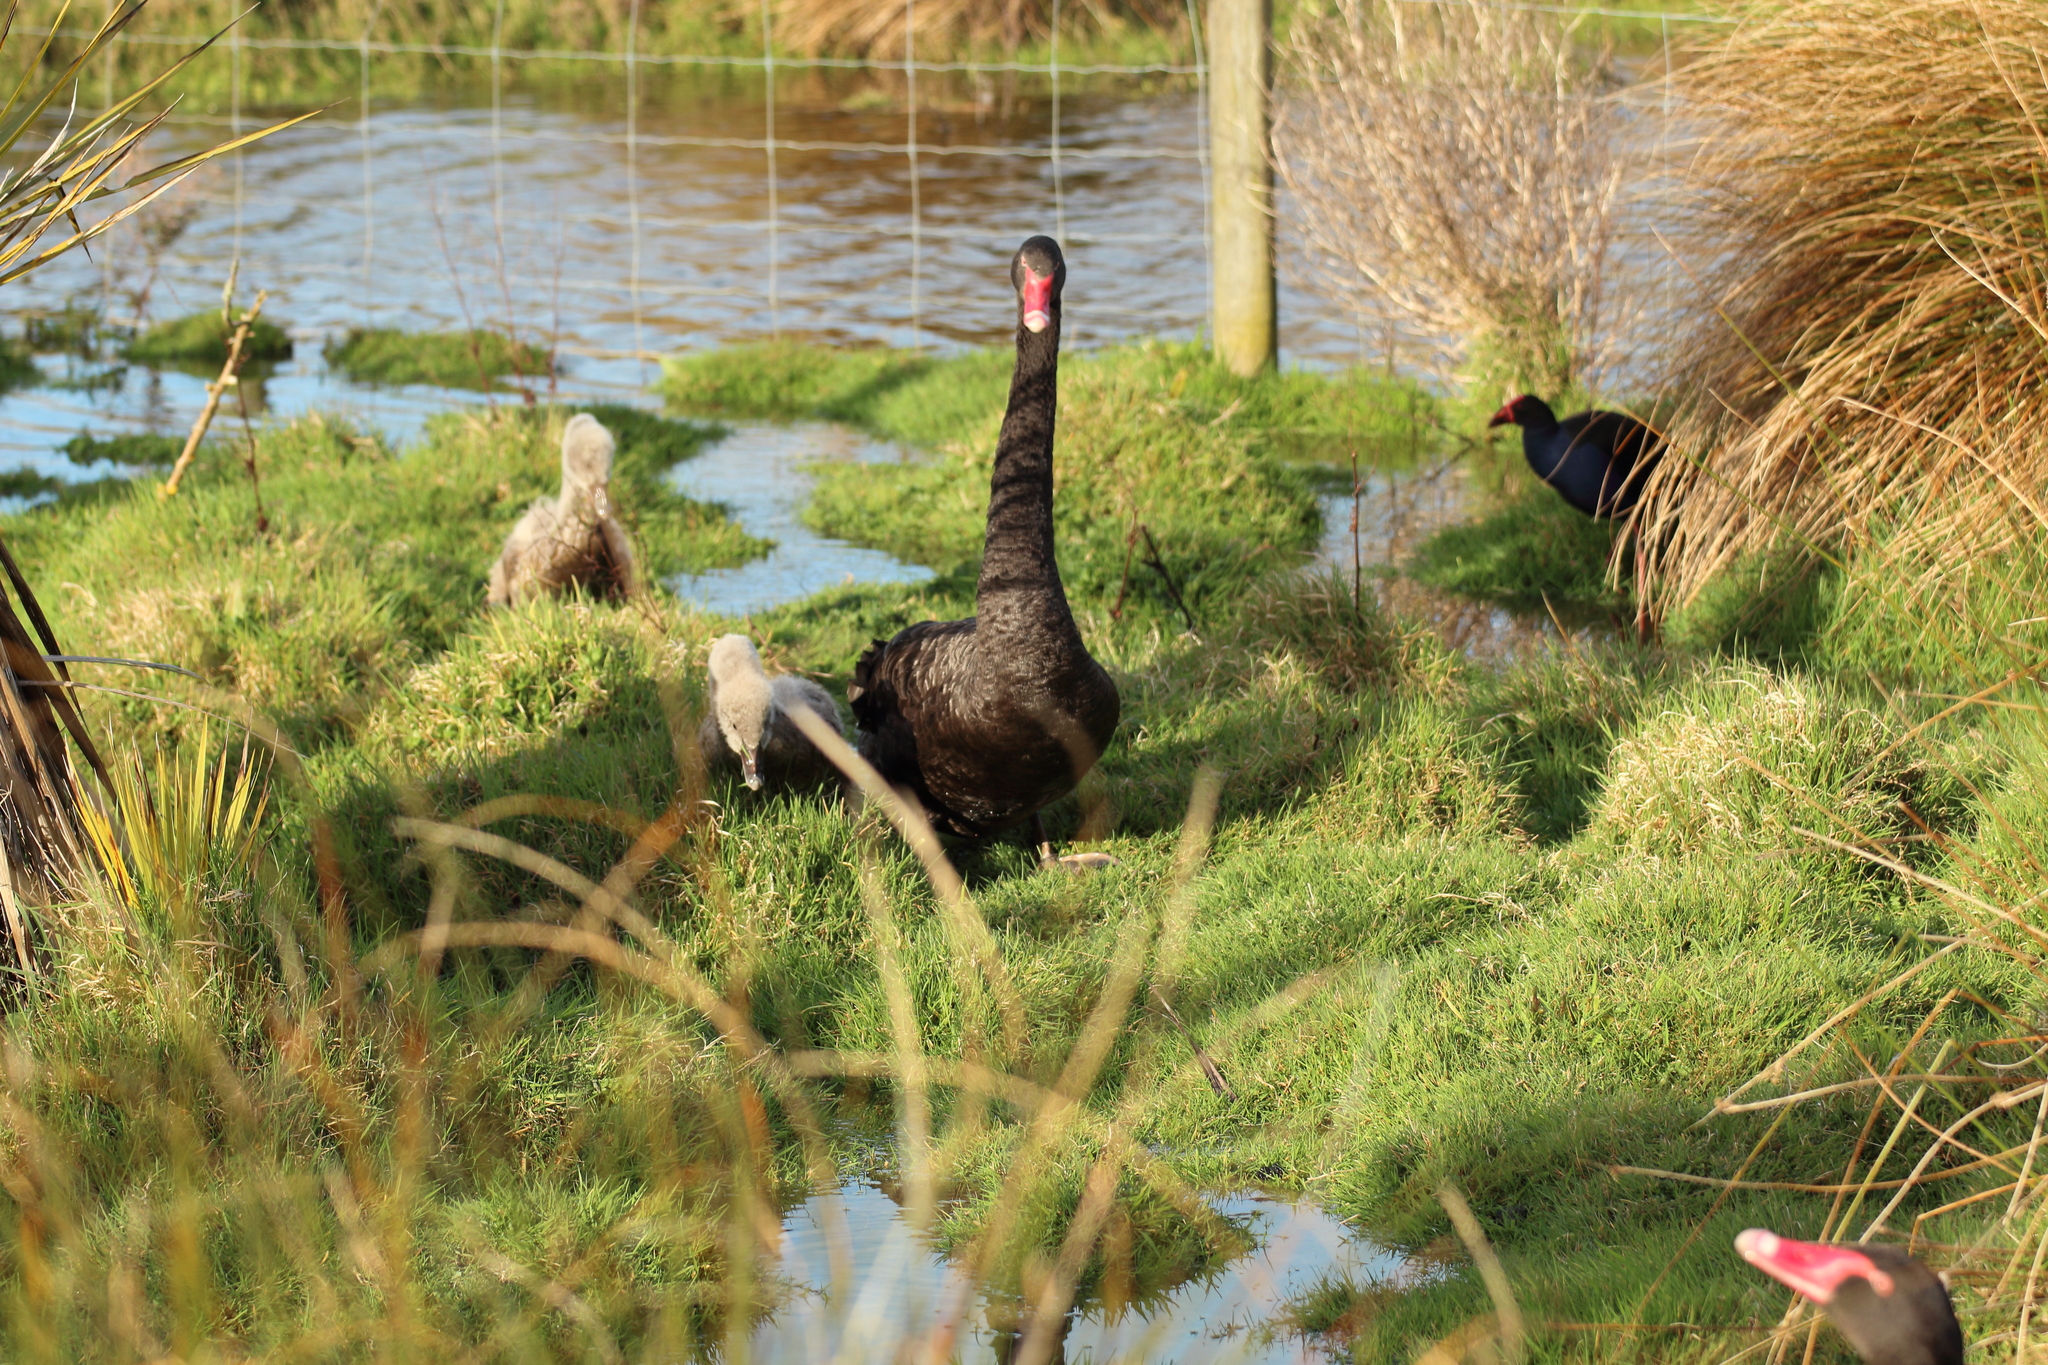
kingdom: Animalia
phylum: Chordata
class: Aves
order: Anseriformes
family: Anatidae
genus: Cygnus
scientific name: Cygnus atratus
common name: Black swan
